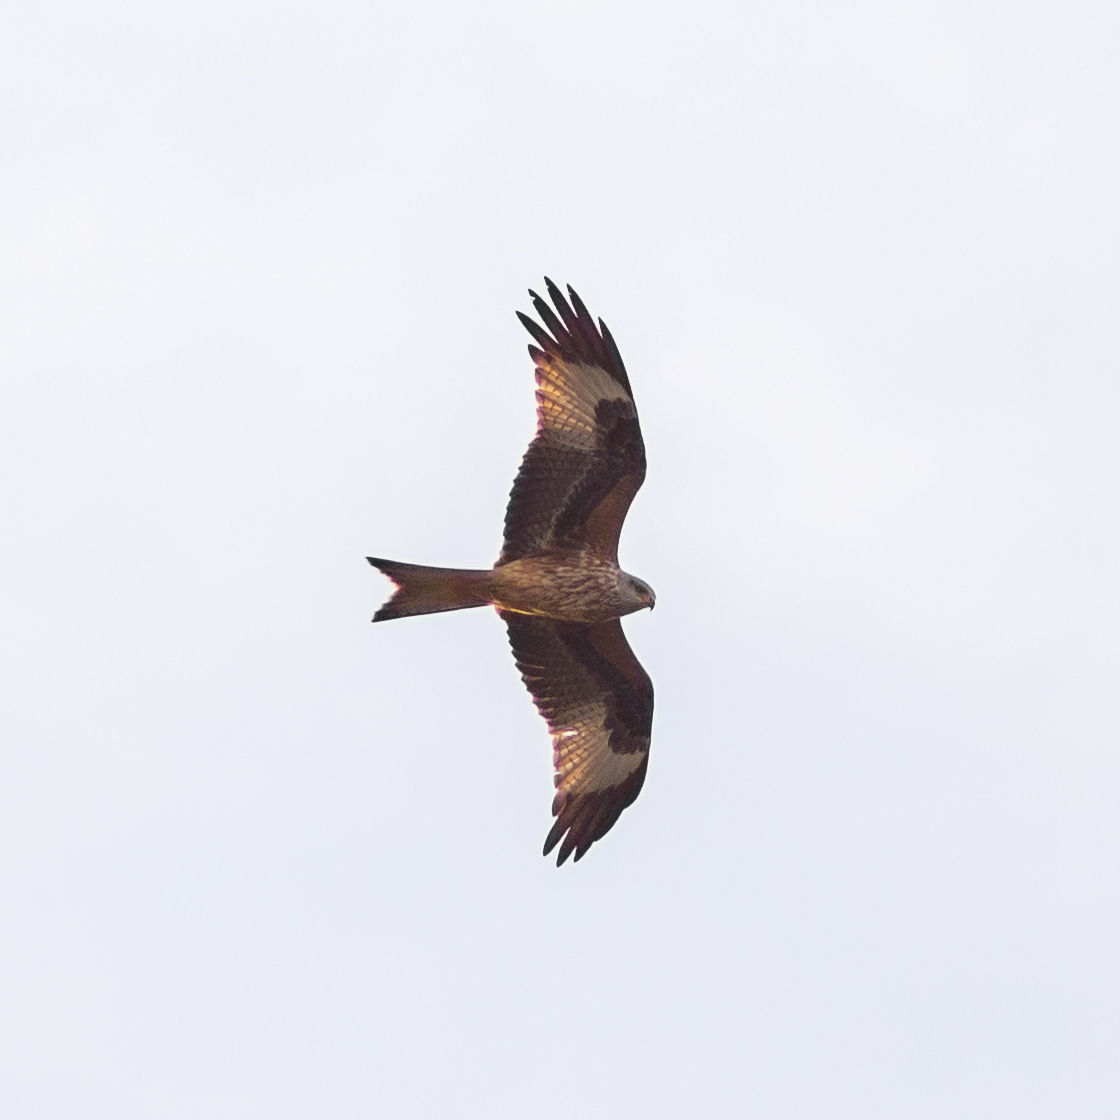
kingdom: Animalia
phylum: Chordata
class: Aves
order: Accipitriformes
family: Accipitridae
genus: Milvus
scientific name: Milvus milvus
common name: Red kite
